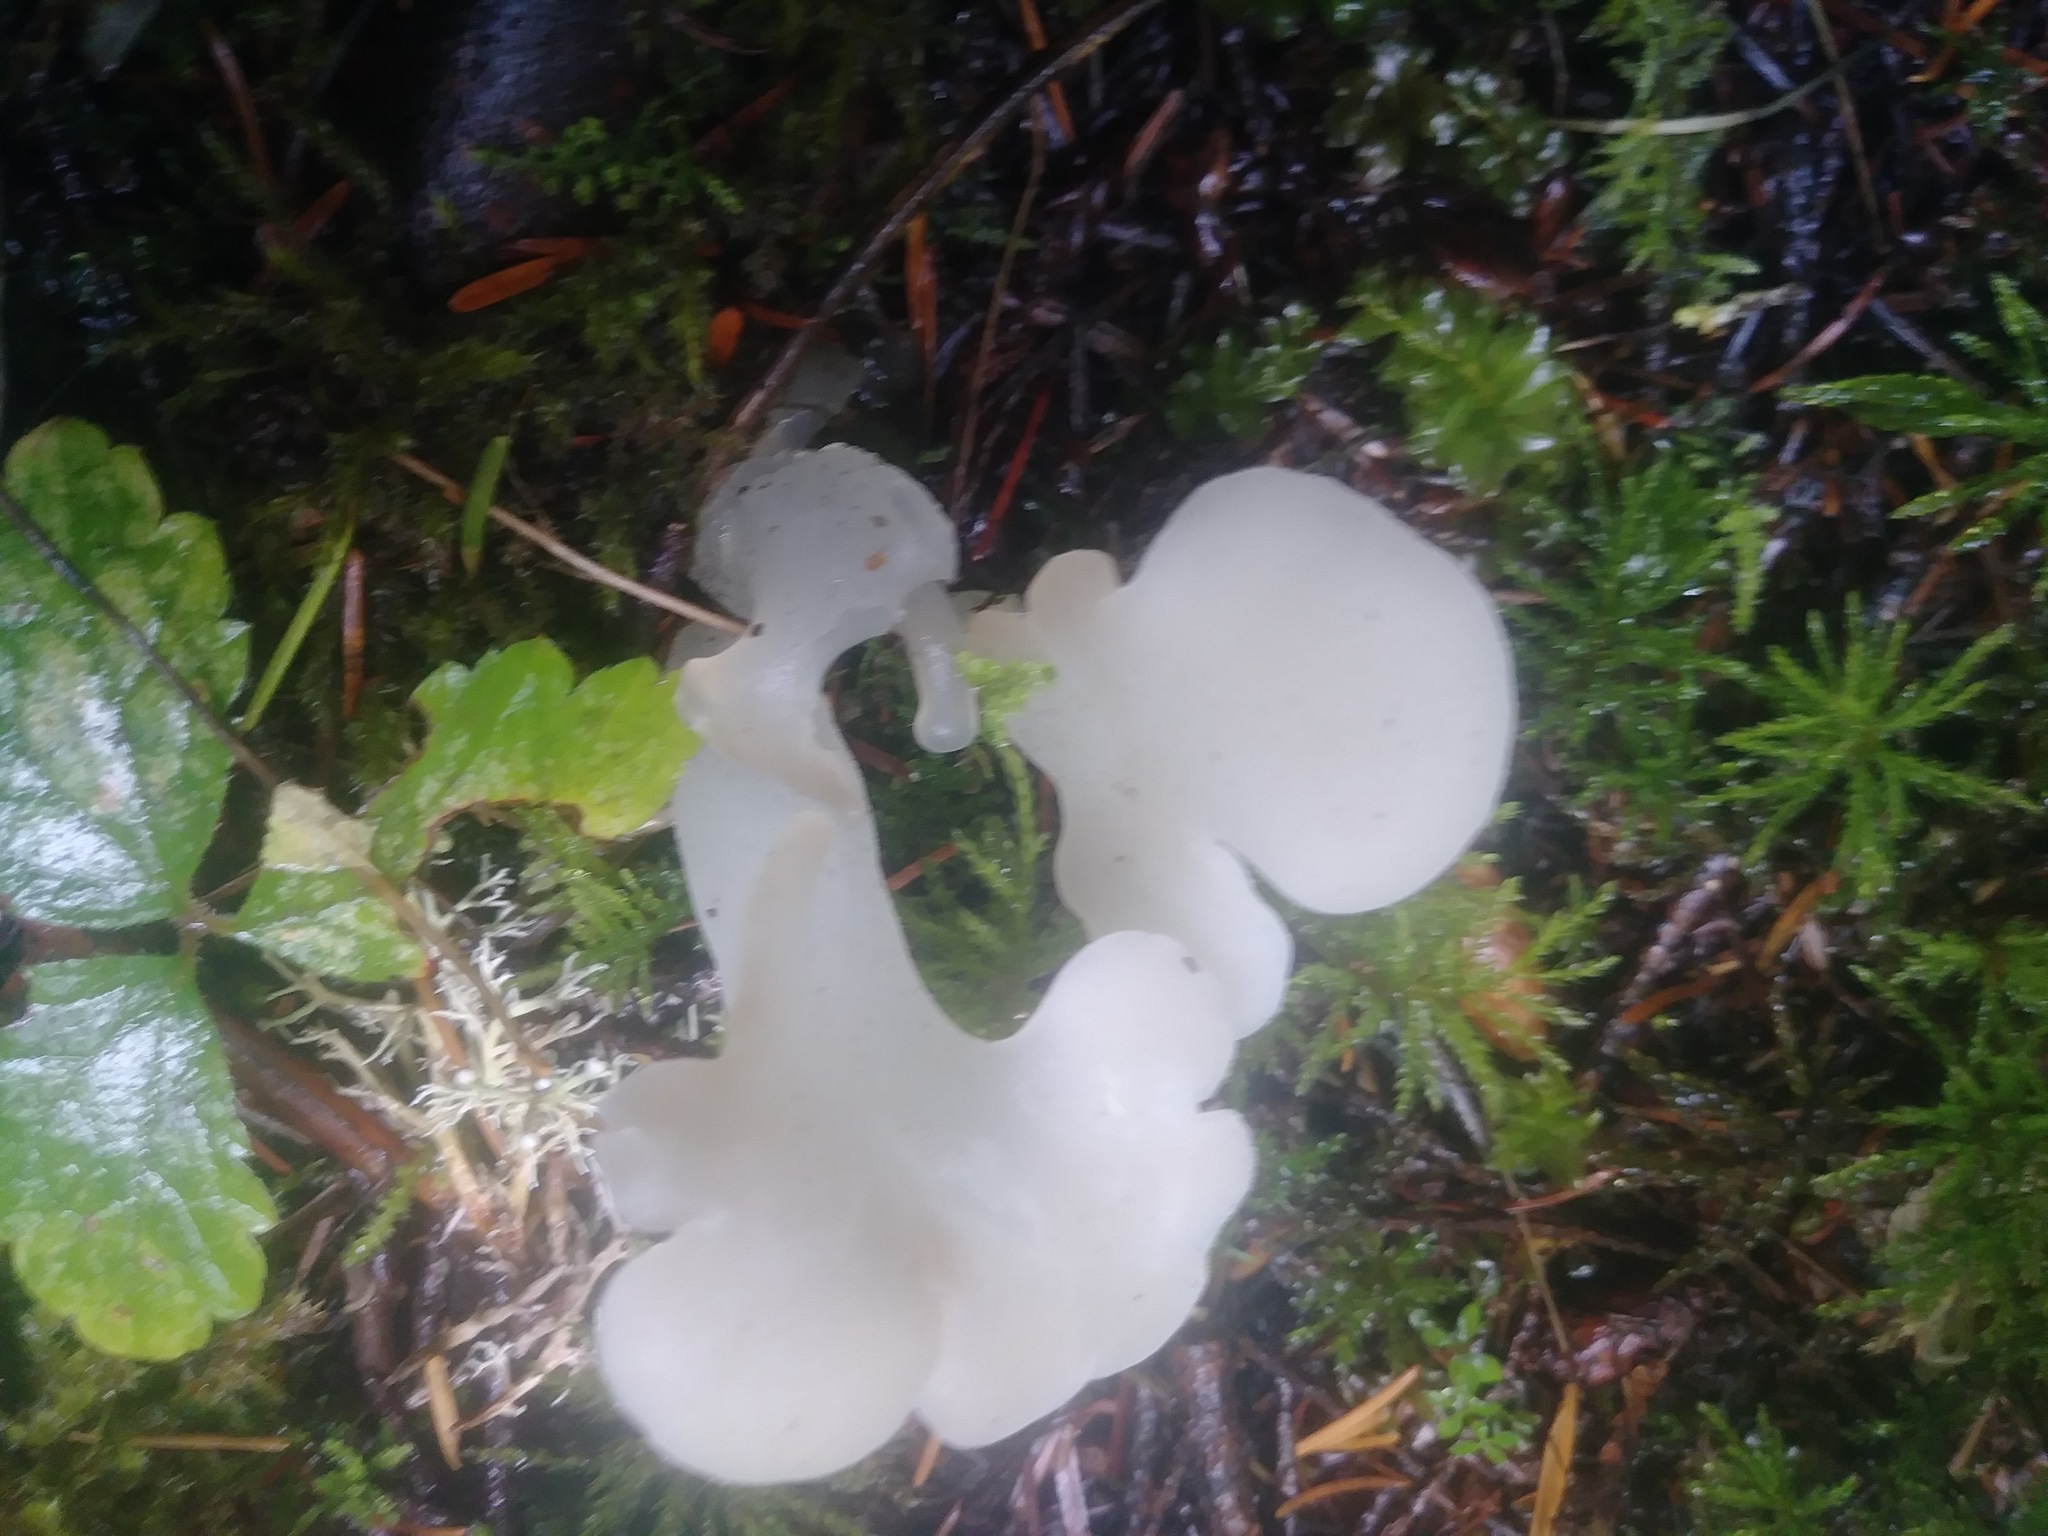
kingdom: Fungi
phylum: Basidiomycota
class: Agaricomycetes
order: Auriculariales
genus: Pseudohydnum
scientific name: Pseudohydnum gelatinosum
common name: Jelly tongue
